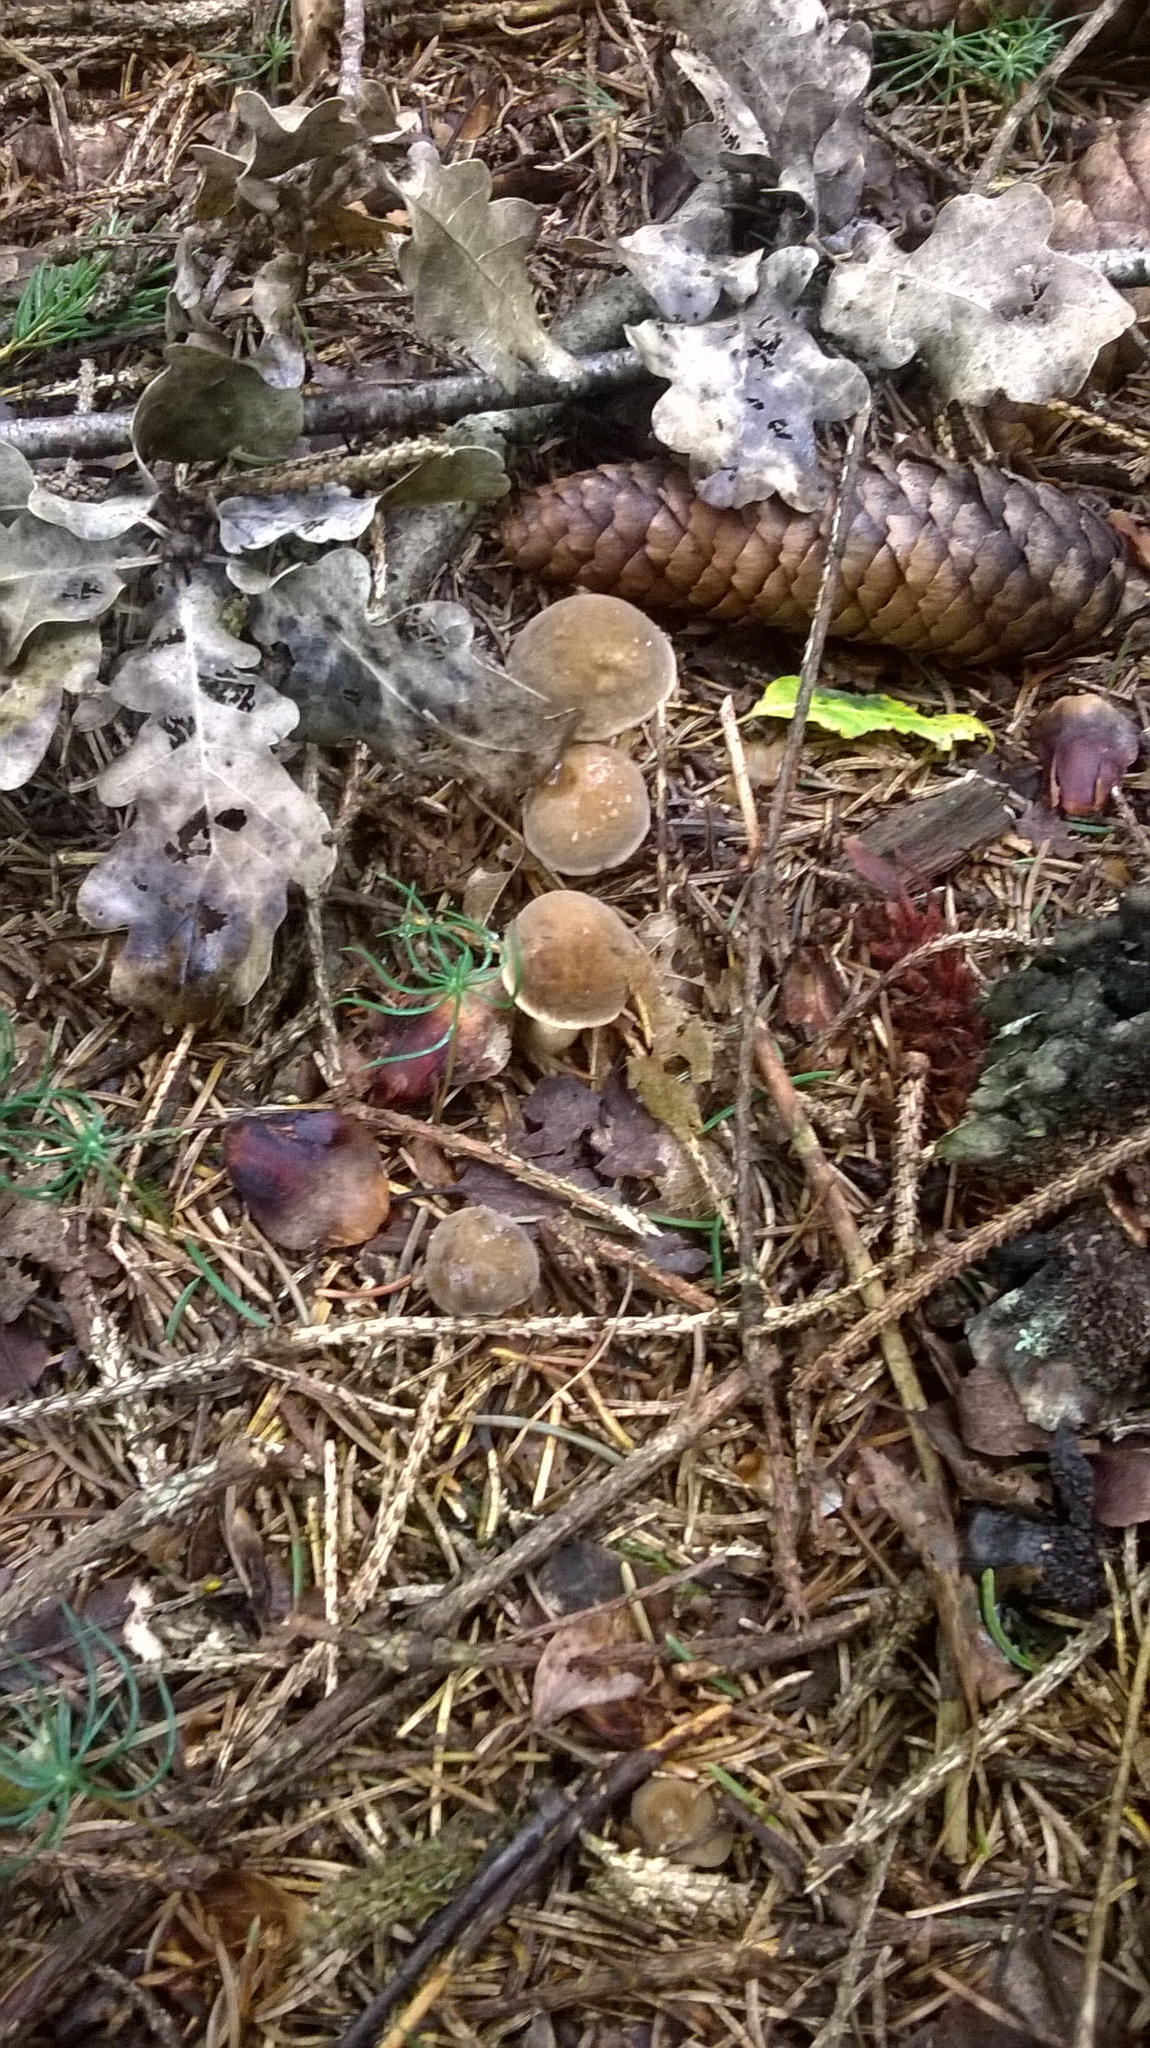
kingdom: Fungi
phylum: Basidiomycota
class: Agaricomycetes
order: Boletales
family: Boletaceae
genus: Xerocomus
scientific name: Xerocomus subtomentosus
